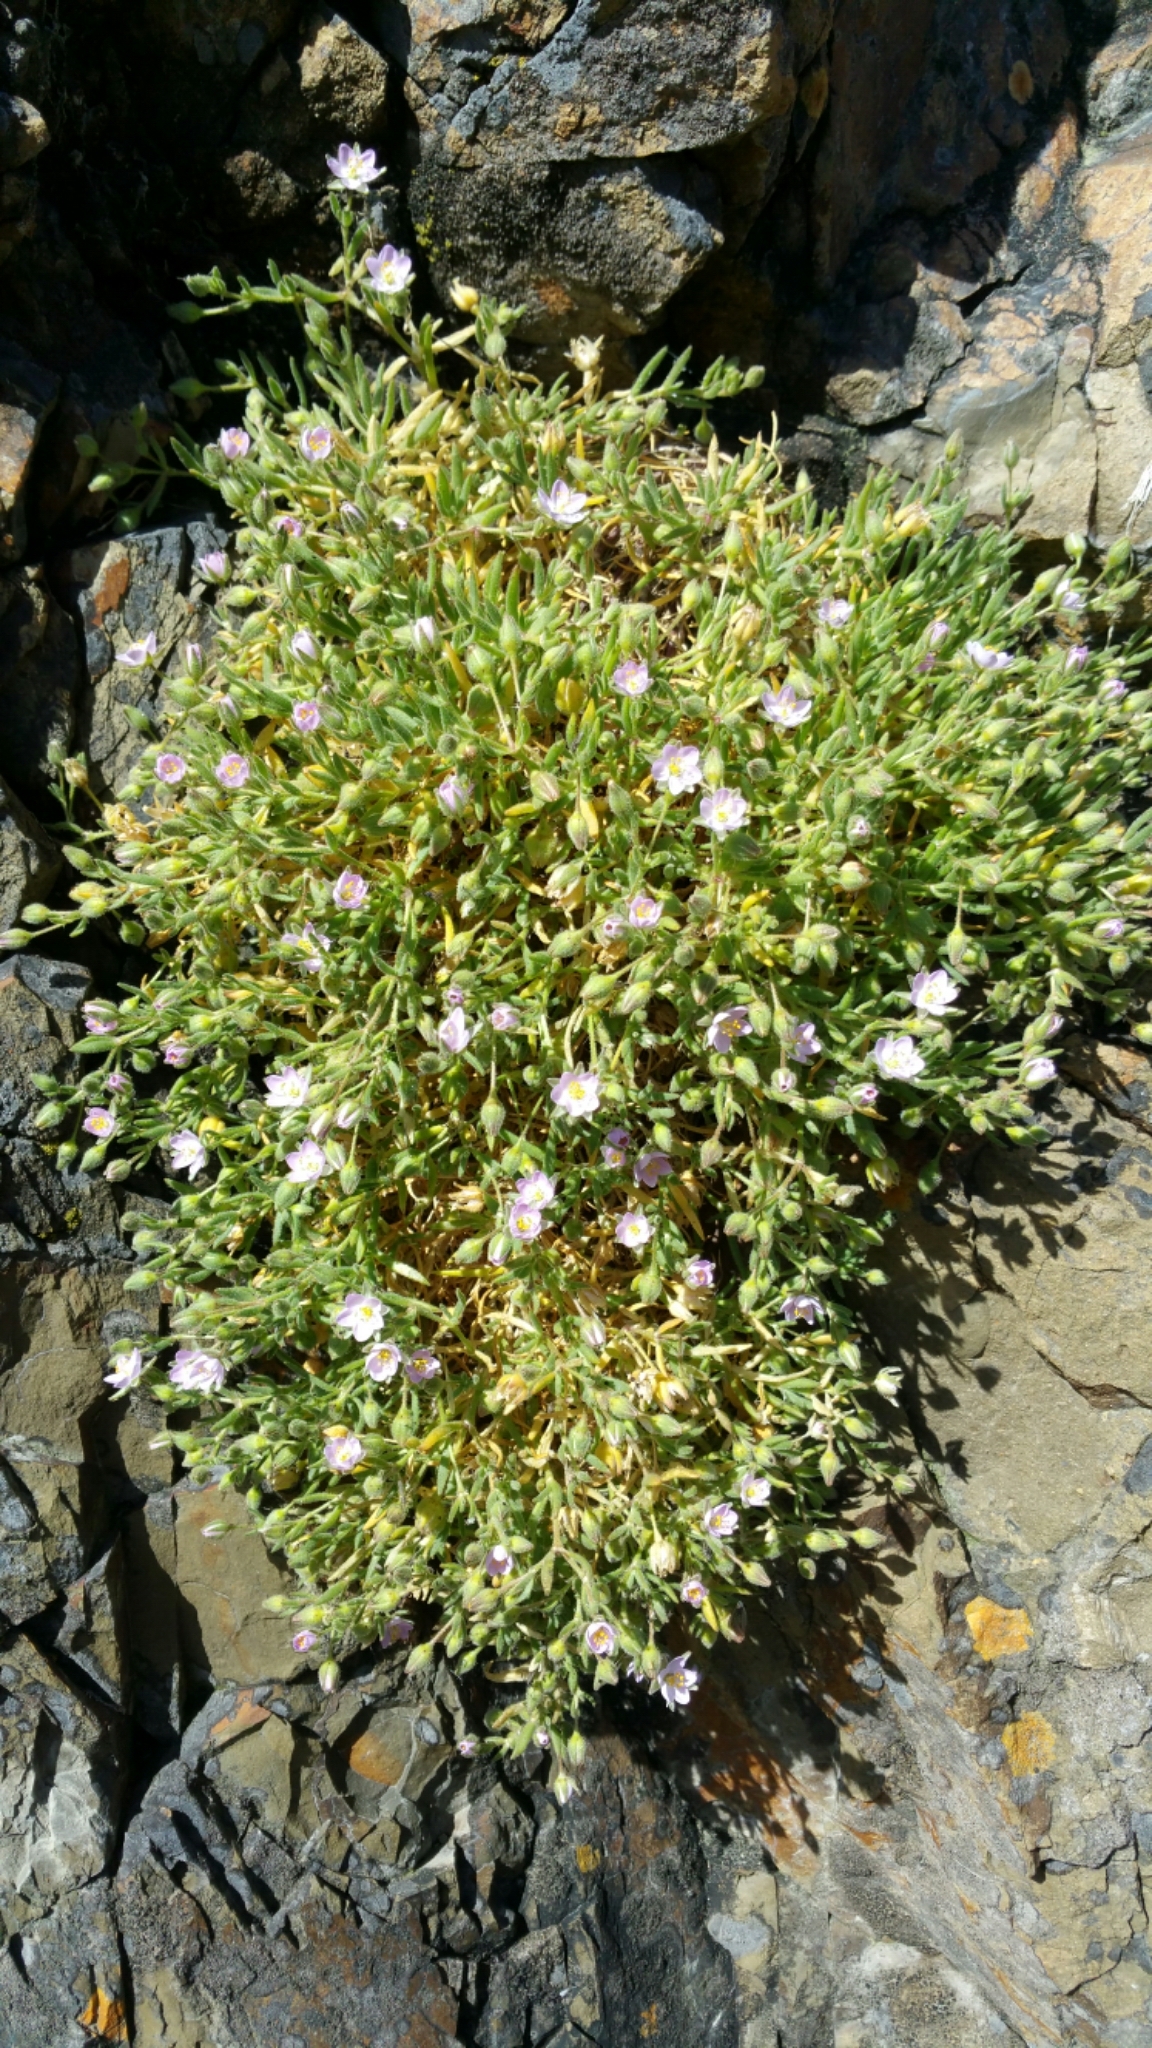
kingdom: Plantae
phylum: Tracheophyta
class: Magnoliopsida
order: Caryophyllales
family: Caryophyllaceae
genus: Spergularia
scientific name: Spergularia macrotheca
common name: Beach sand-spurrey
